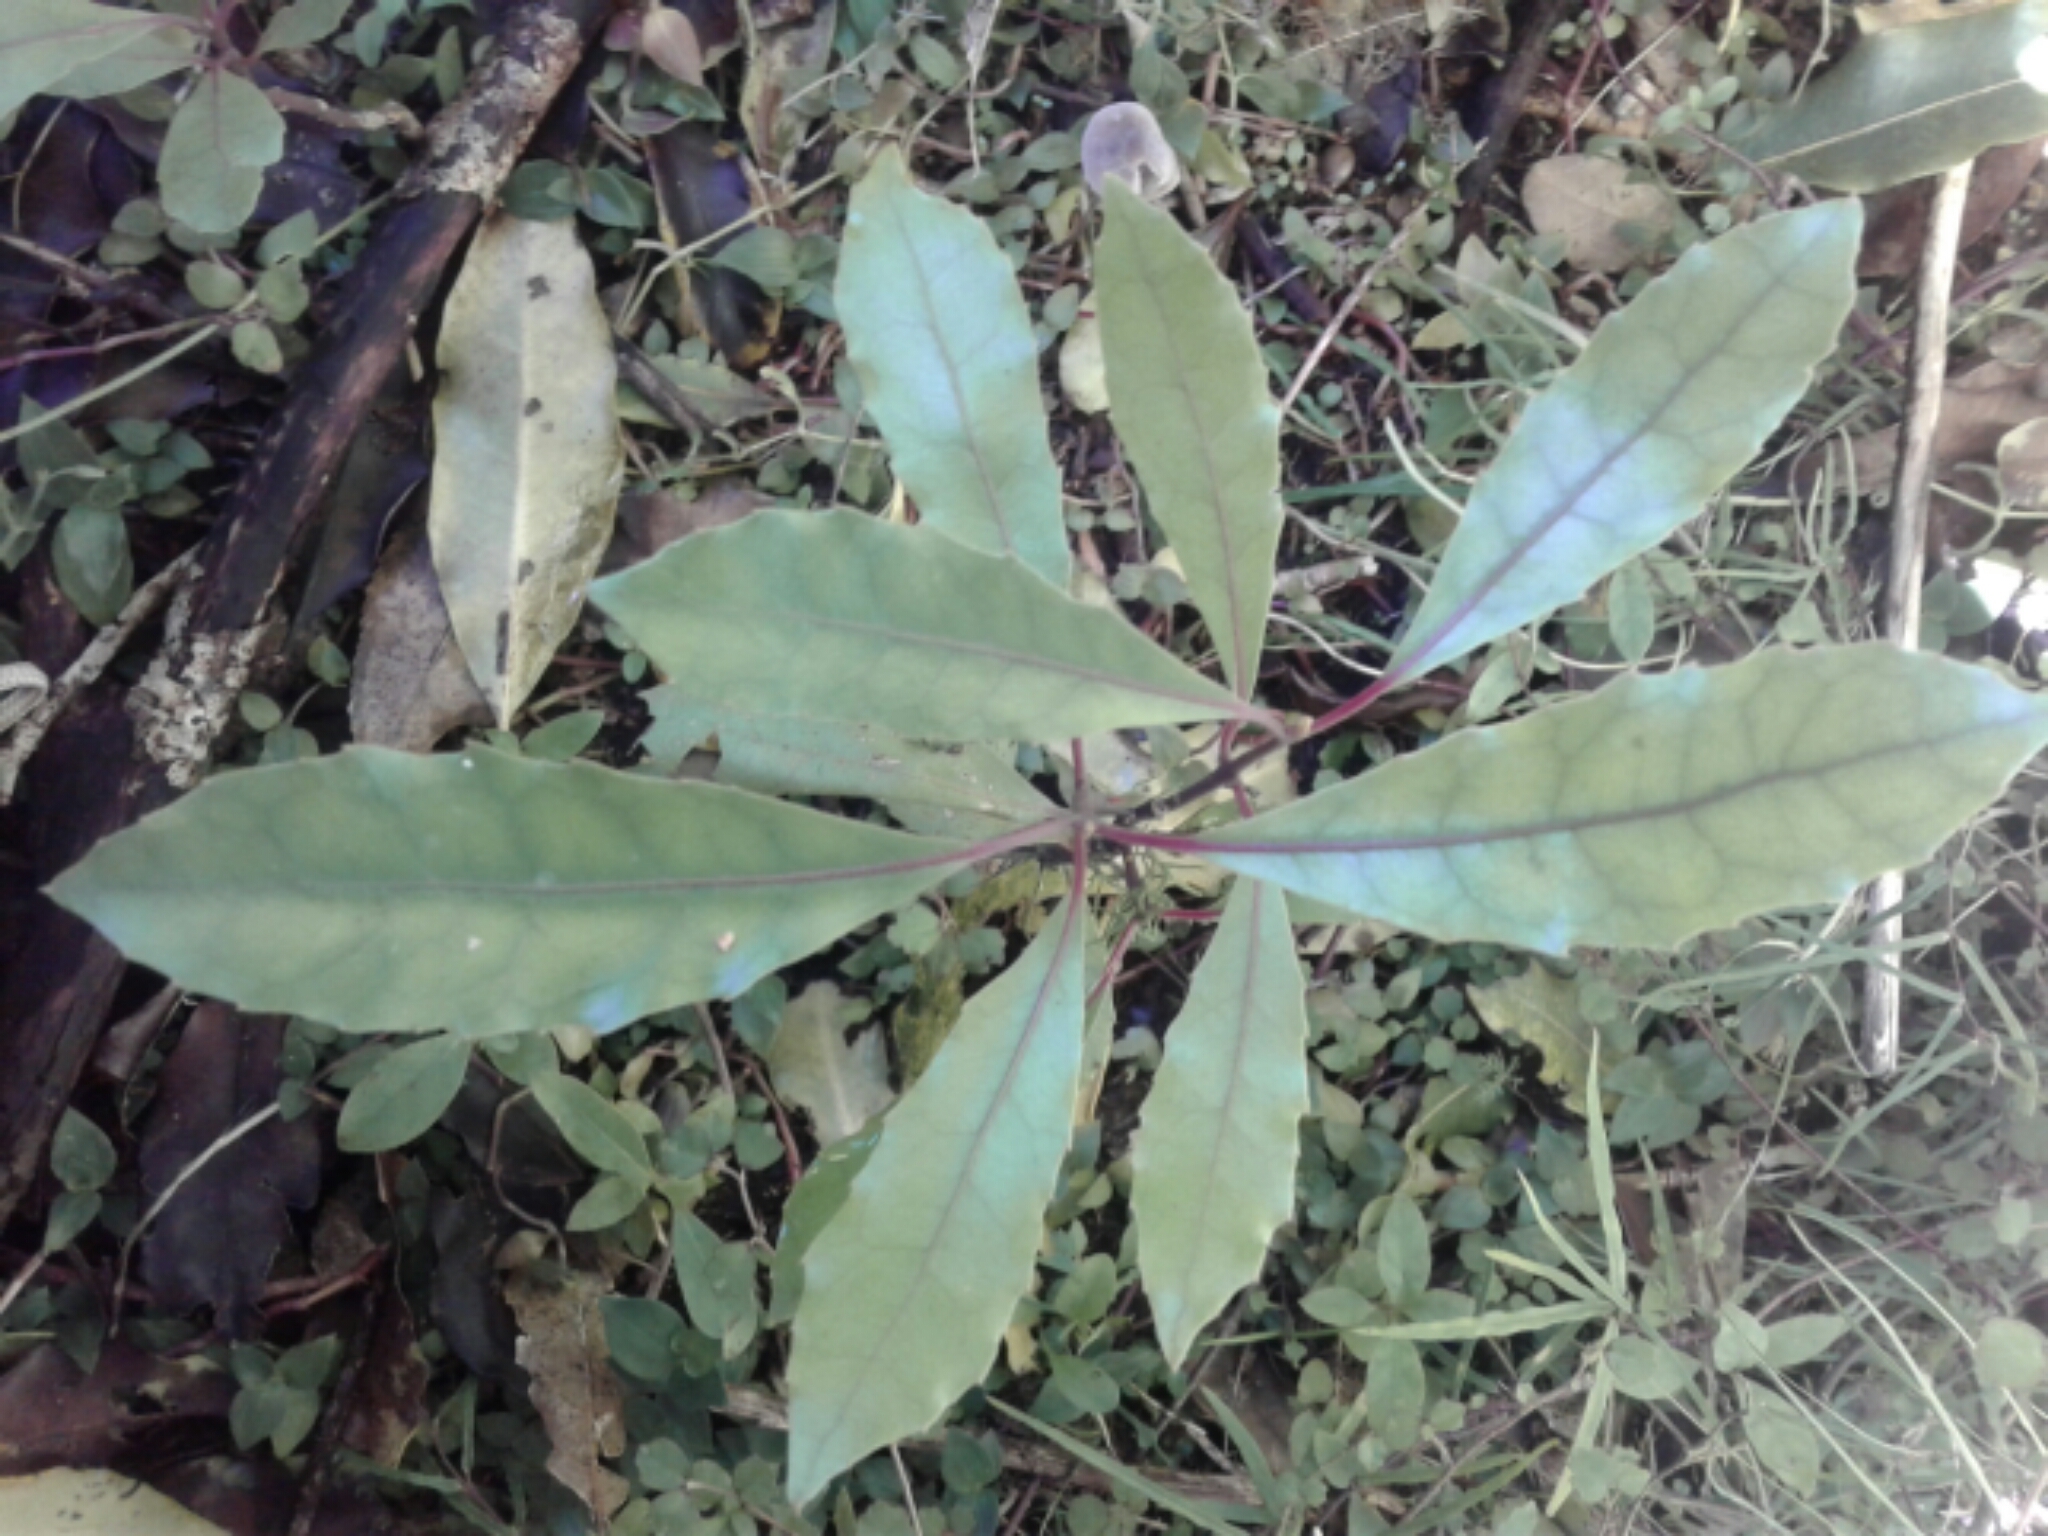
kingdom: Plantae
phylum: Tracheophyta
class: Magnoliopsida
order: Laurales
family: Monimiaceae
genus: Hedycarya
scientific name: Hedycarya arborea
